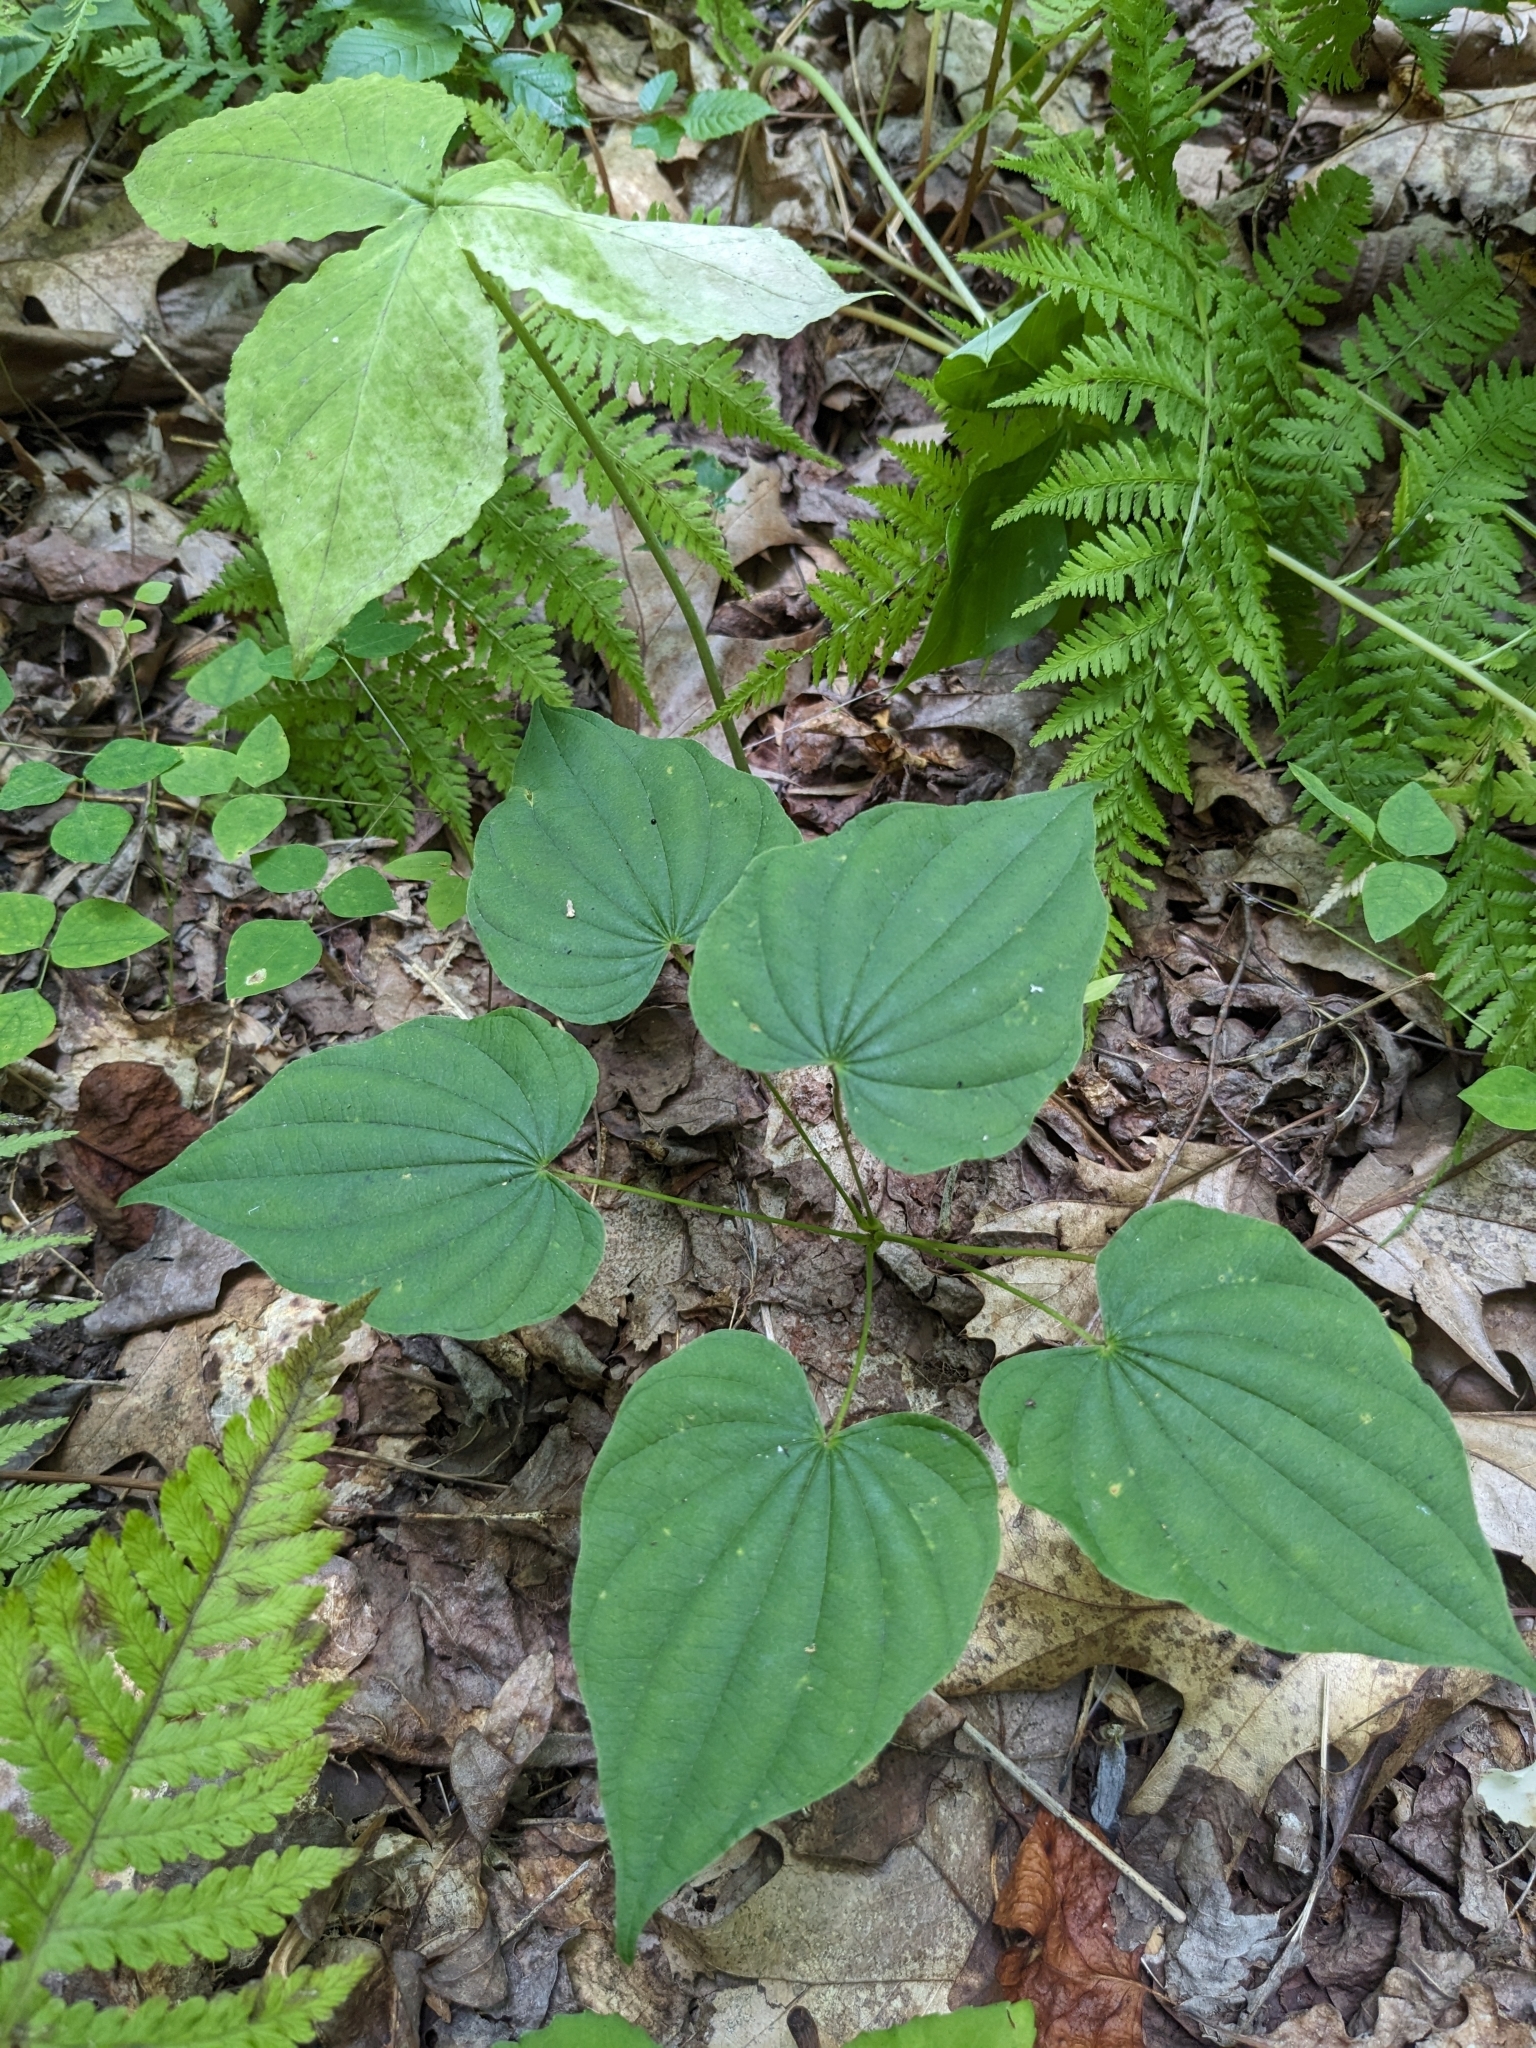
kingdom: Plantae
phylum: Tracheophyta
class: Liliopsida
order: Dioscoreales
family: Dioscoreaceae
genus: Dioscorea
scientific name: Dioscorea villosa
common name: Wild yam
